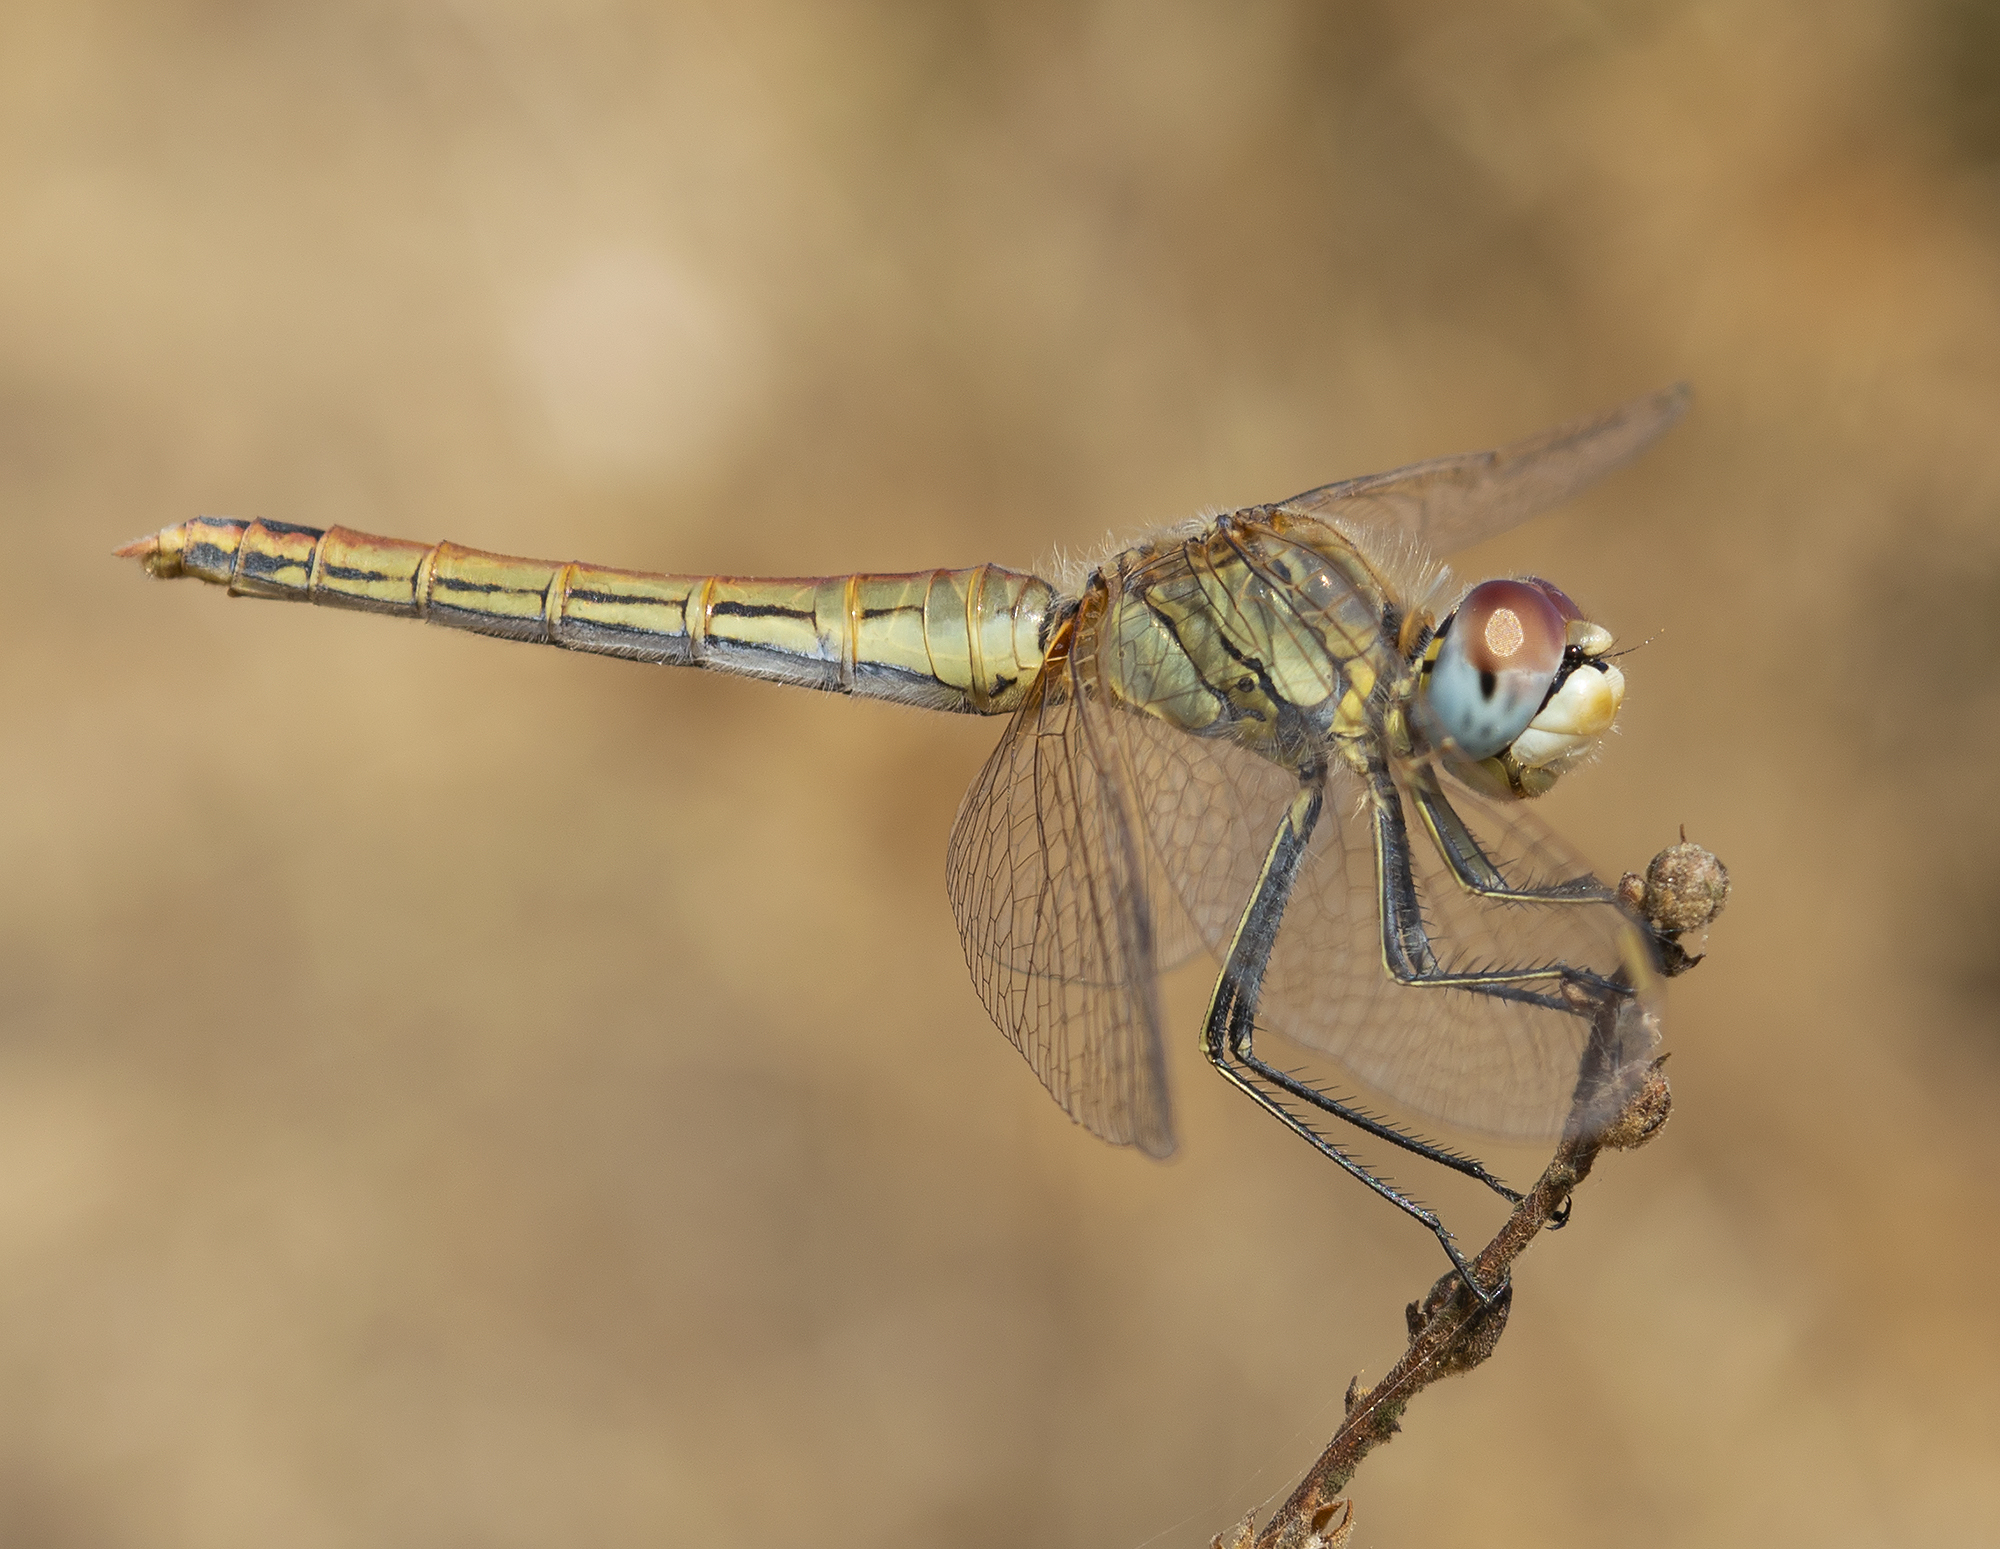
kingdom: Animalia
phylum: Arthropoda
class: Insecta
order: Odonata
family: Libellulidae
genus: Sympetrum
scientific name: Sympetrum fonscolombii
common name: Red-veined darter
